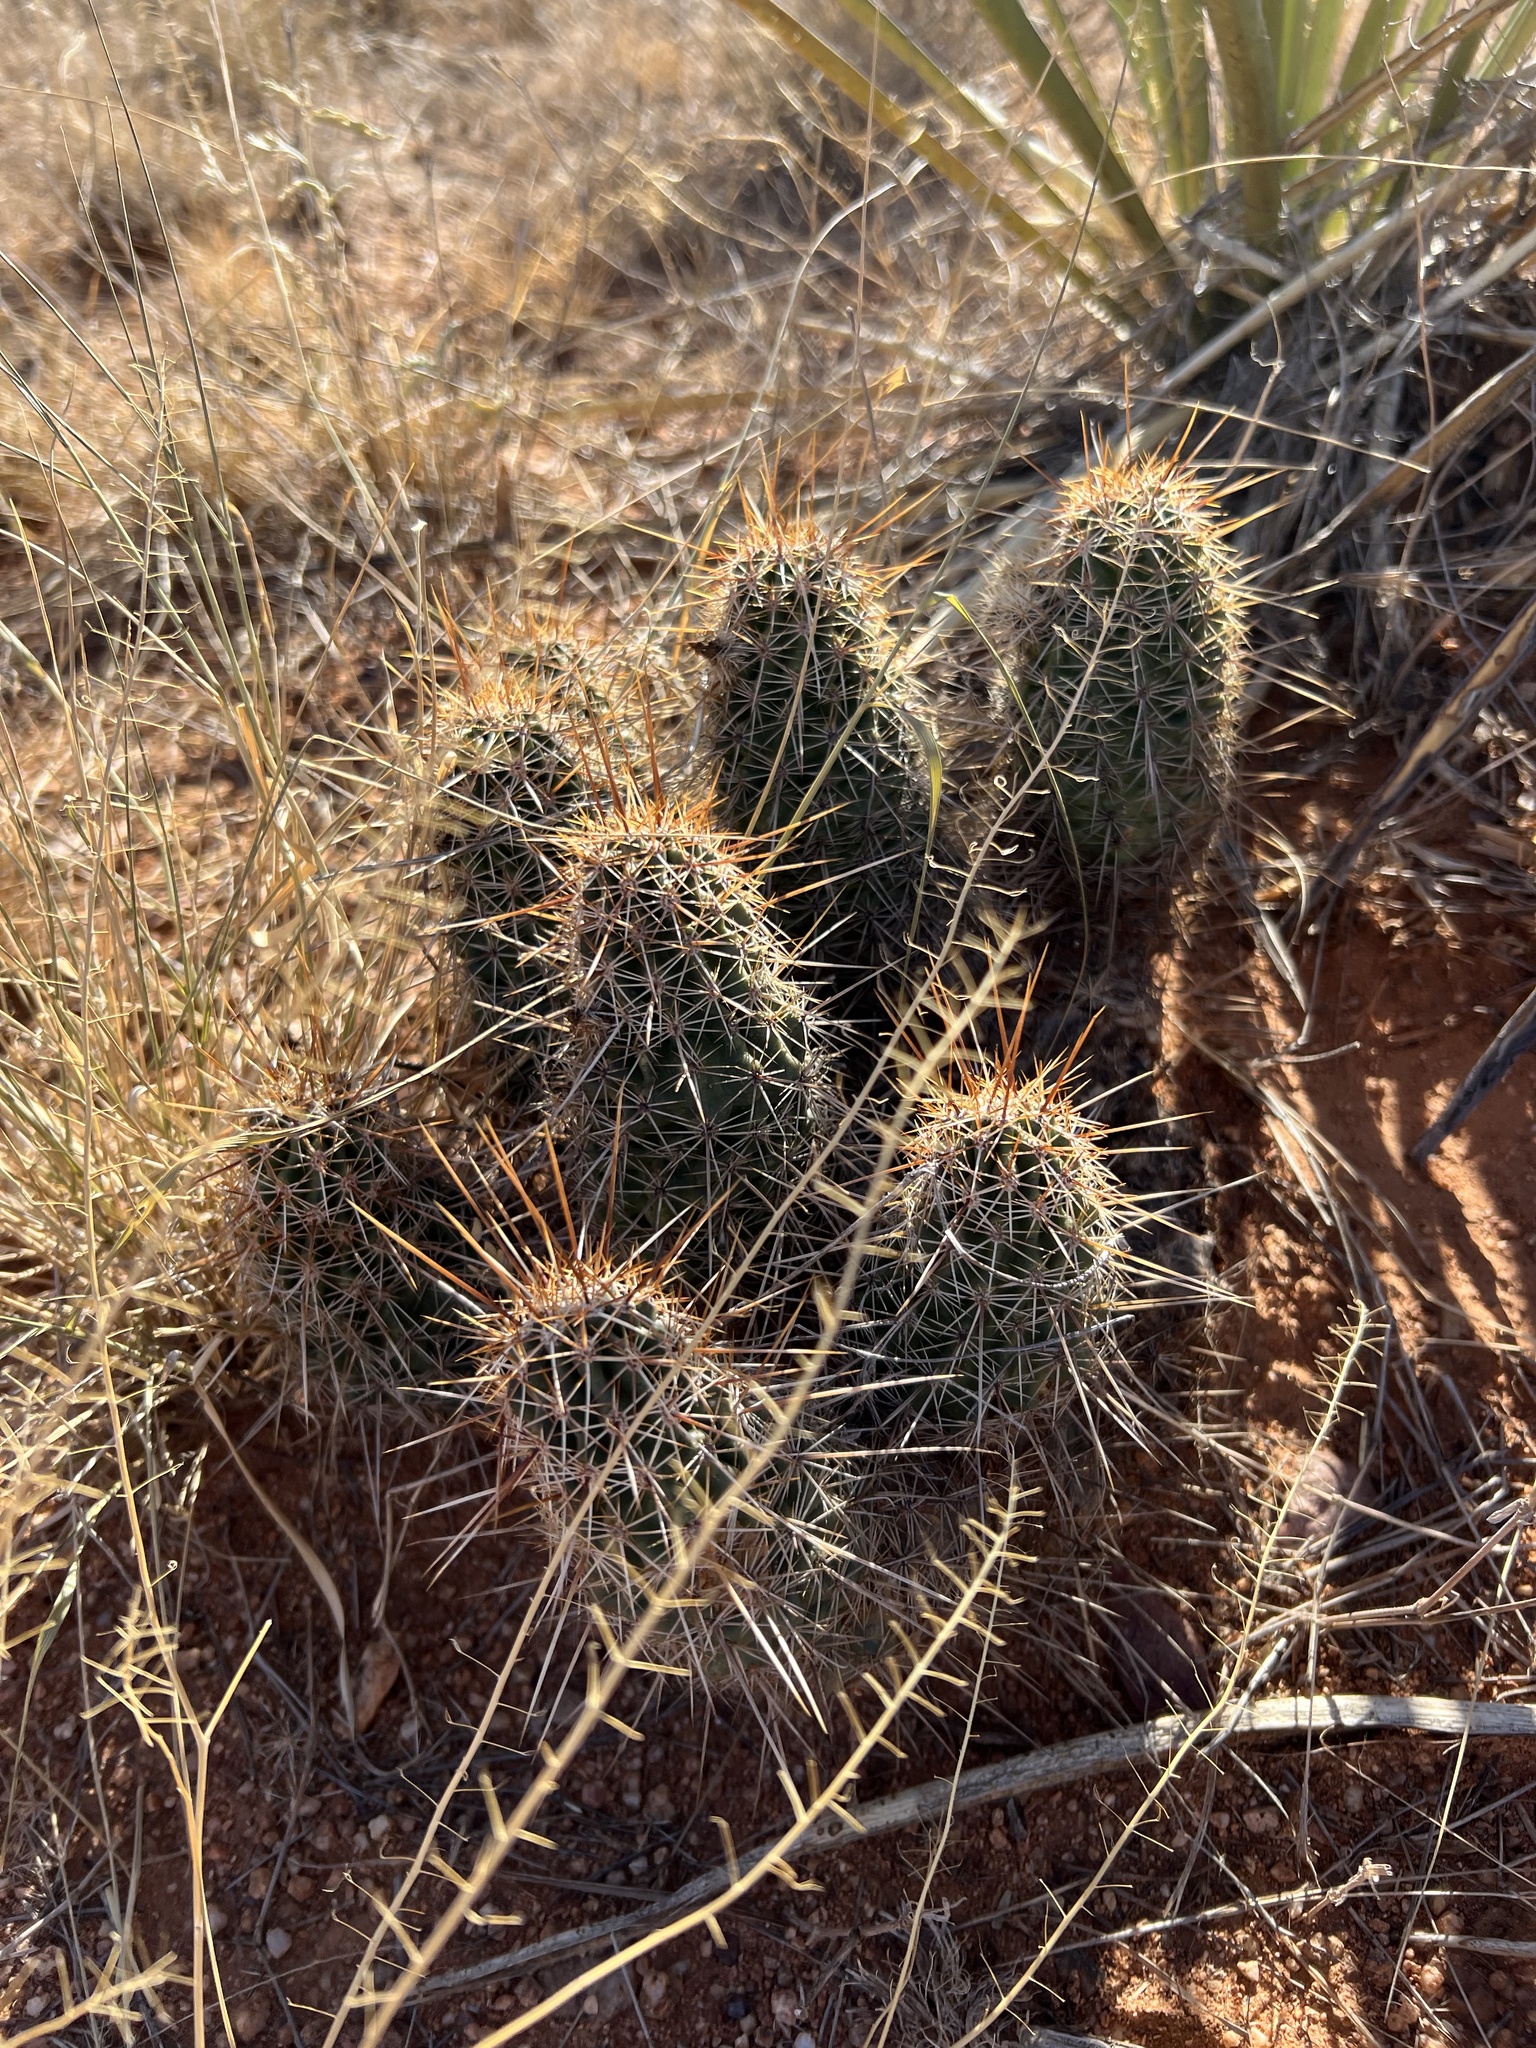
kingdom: Plantae
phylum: Tracheophyta
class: Magnoliopsida
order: Caryophyllales
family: Cactaceae
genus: Echinocereus
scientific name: Echinocereus fasciculatus
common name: Bundle hedgehog
